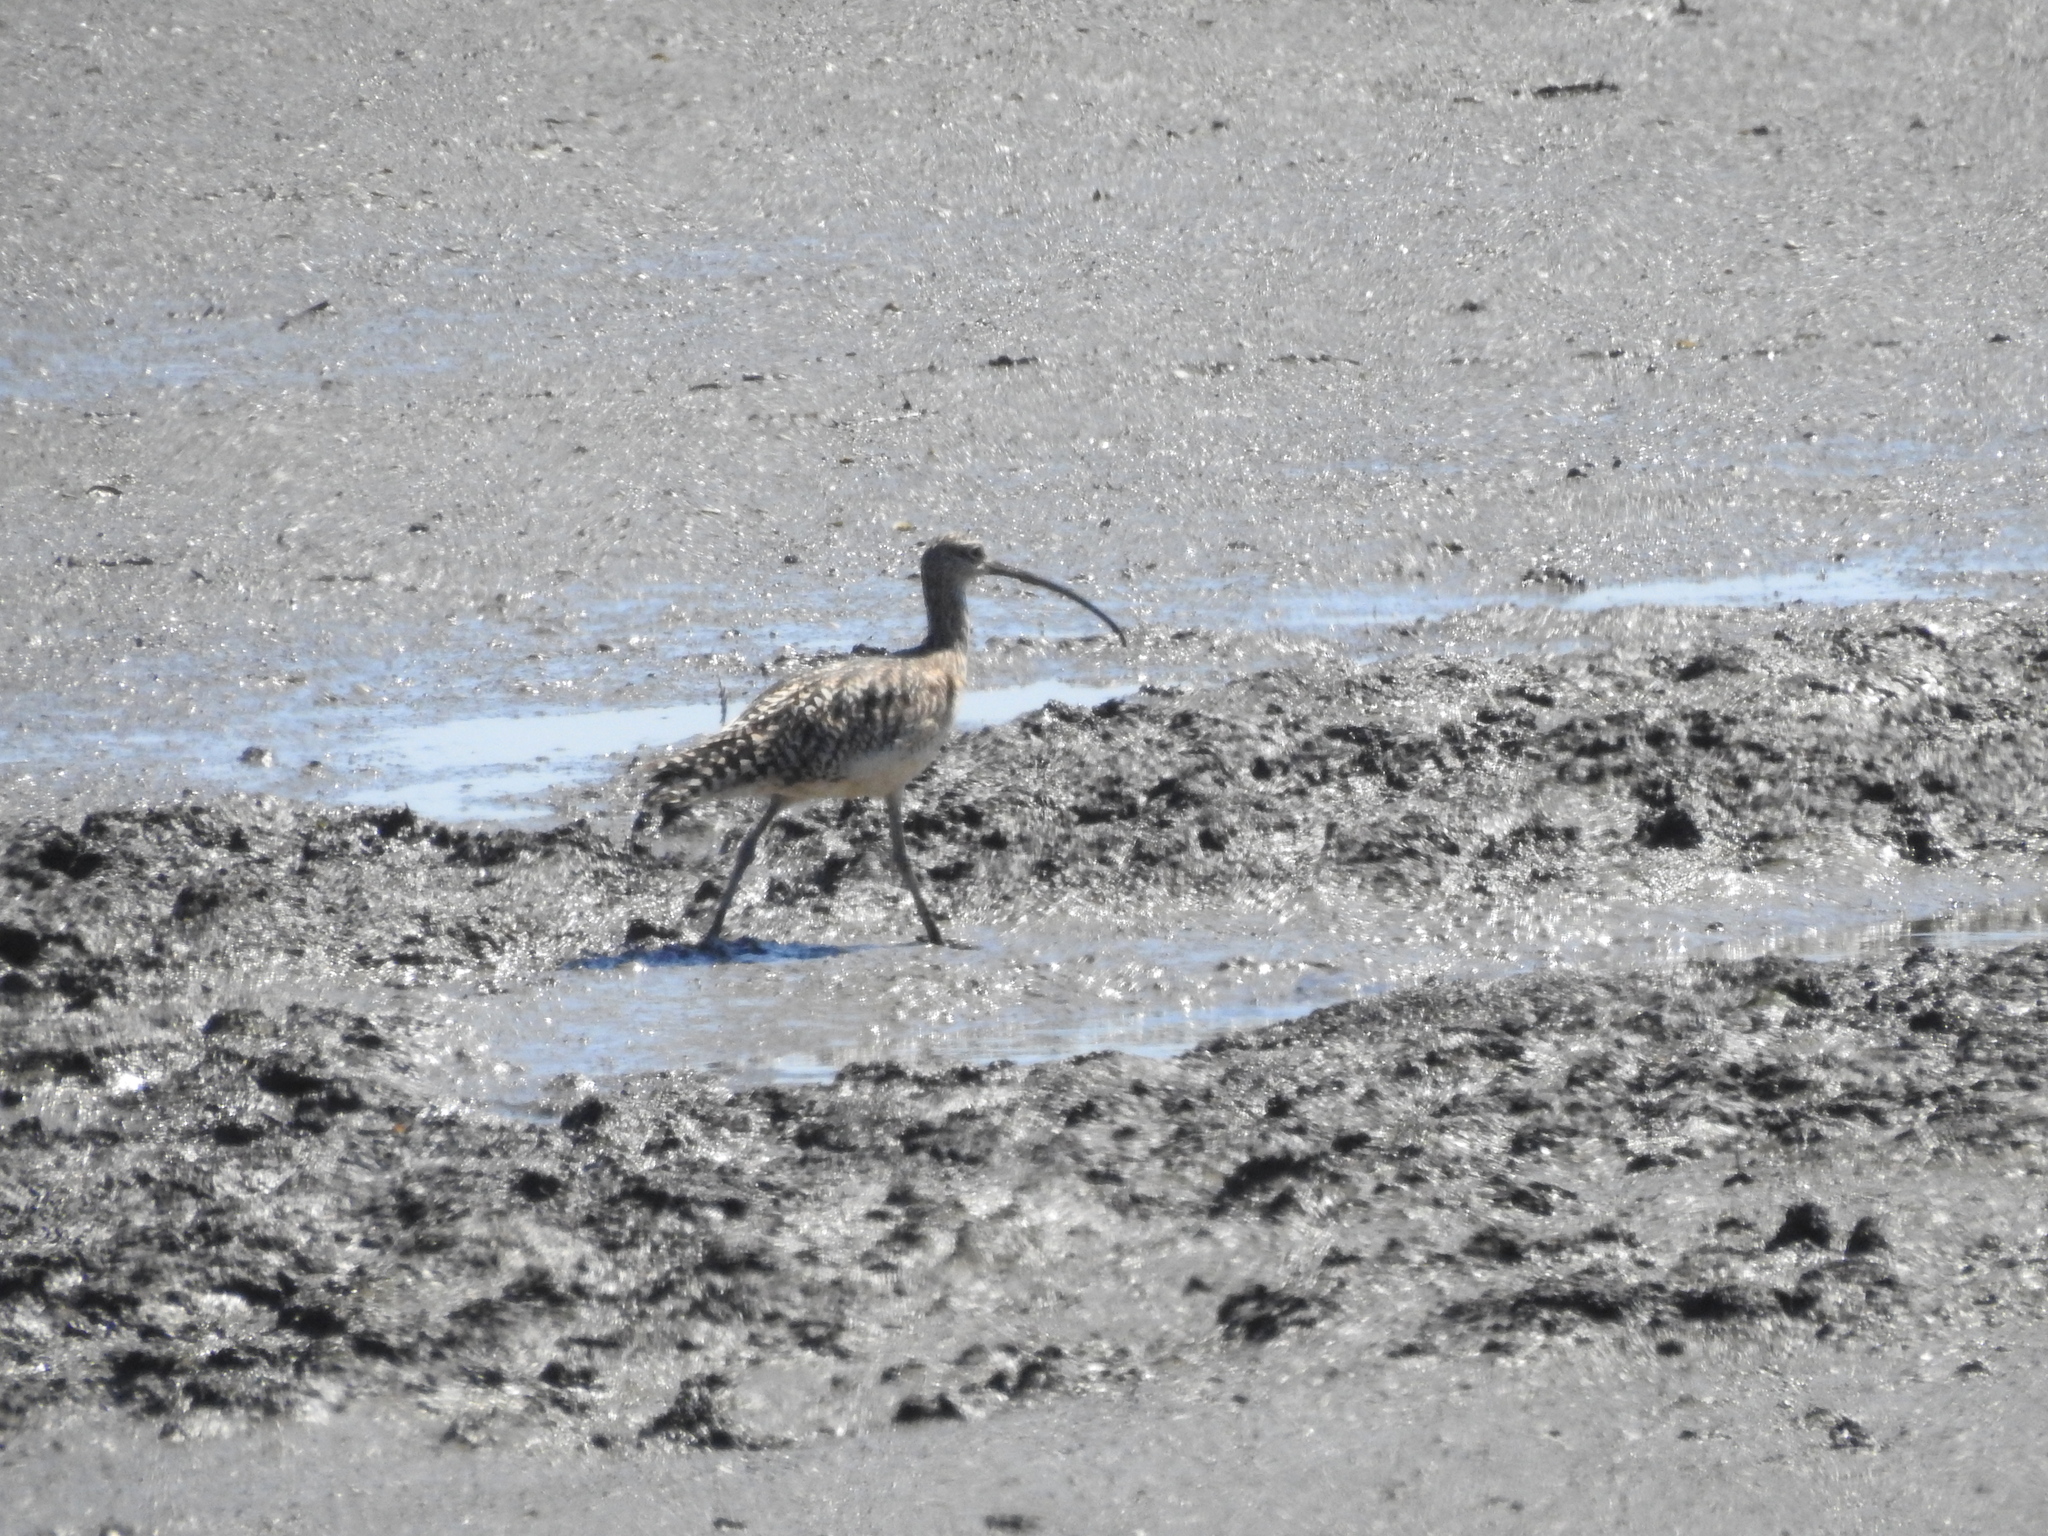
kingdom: Animalia
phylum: Chordata
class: Aves
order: Charadriiformes
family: Scolopacidae
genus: Numenius
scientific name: Numenius americanus
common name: Long-billed curlew
